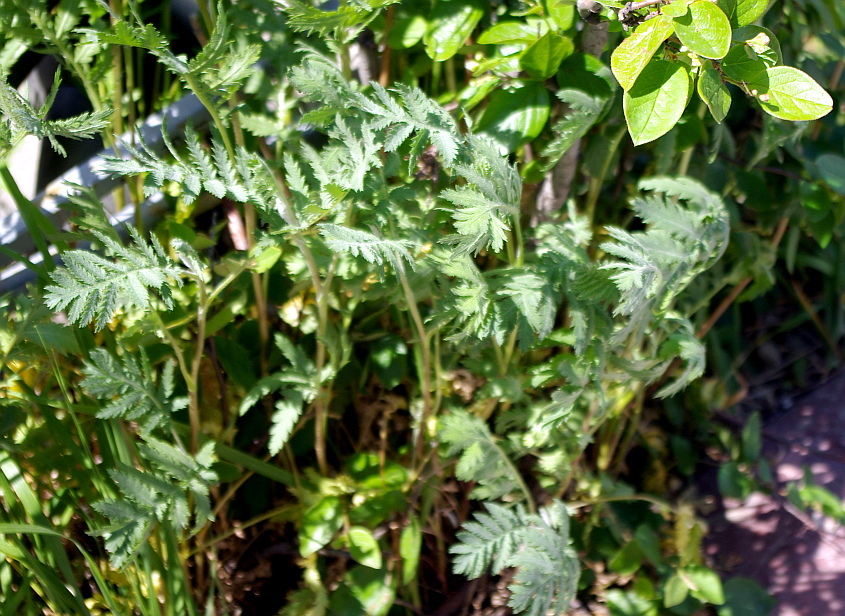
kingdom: Plantae
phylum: Tracheophyta
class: Magnoliopsida
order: Asterales
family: Asteraceae
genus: Tanacetum
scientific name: Tanacetum vulgare
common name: Common tansy
